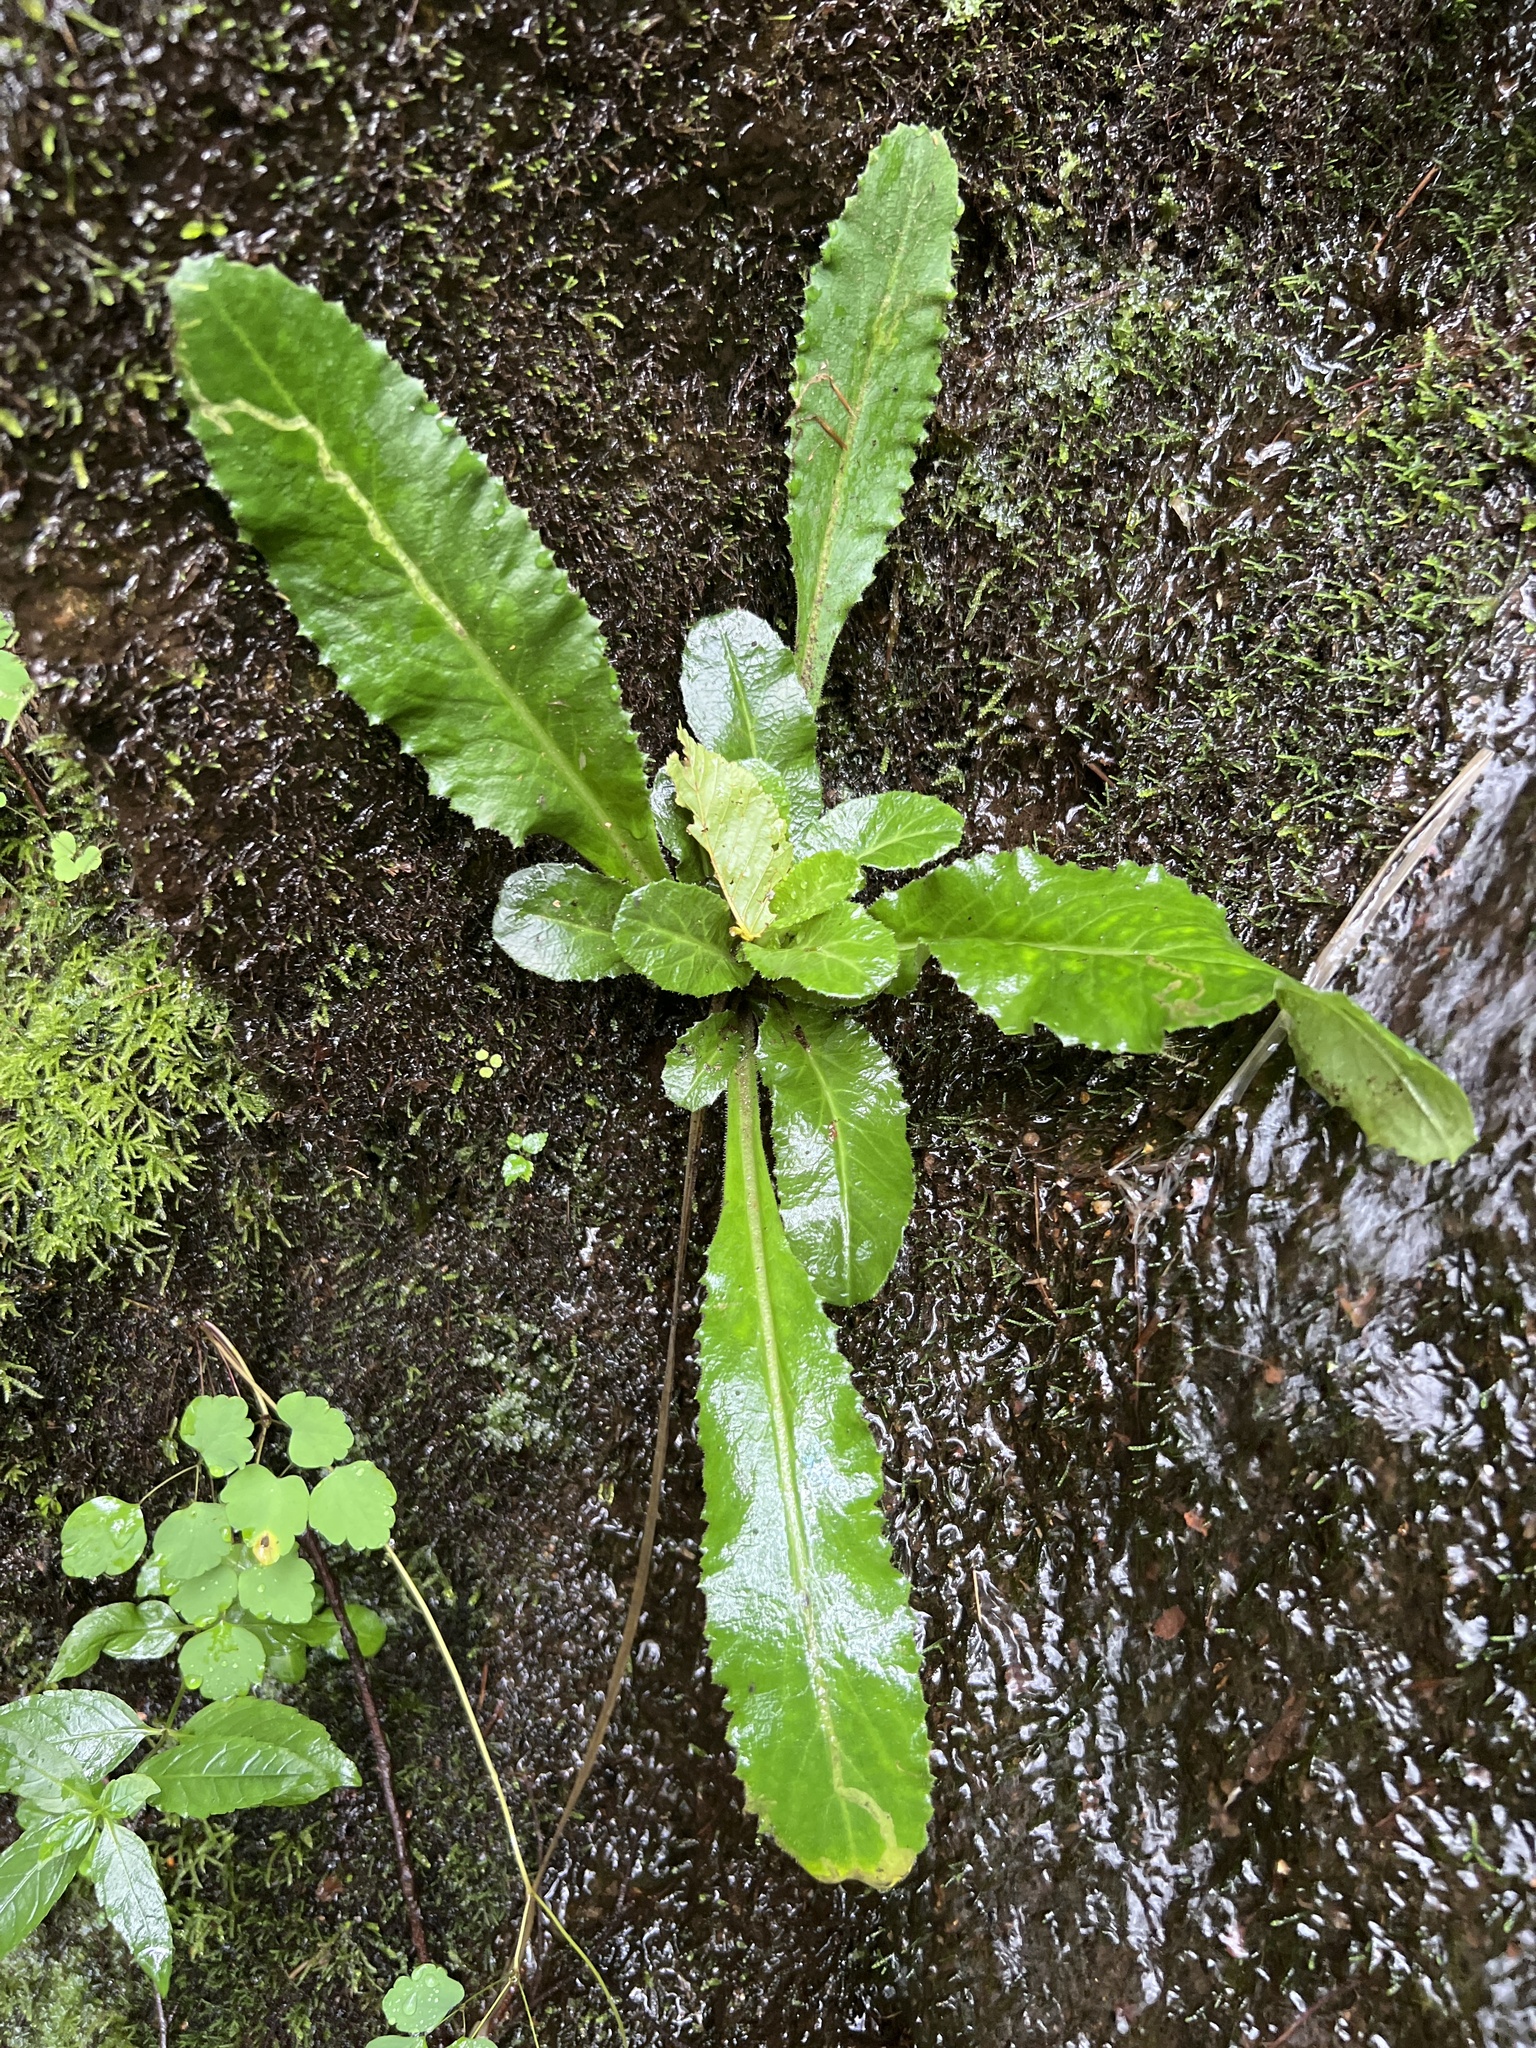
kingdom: Plantae
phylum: Tracheophyta
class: Magnoliopsida
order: Saxifragales
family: Saxifragaceae
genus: Micranthes
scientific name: Micranthes micranthidifolia
